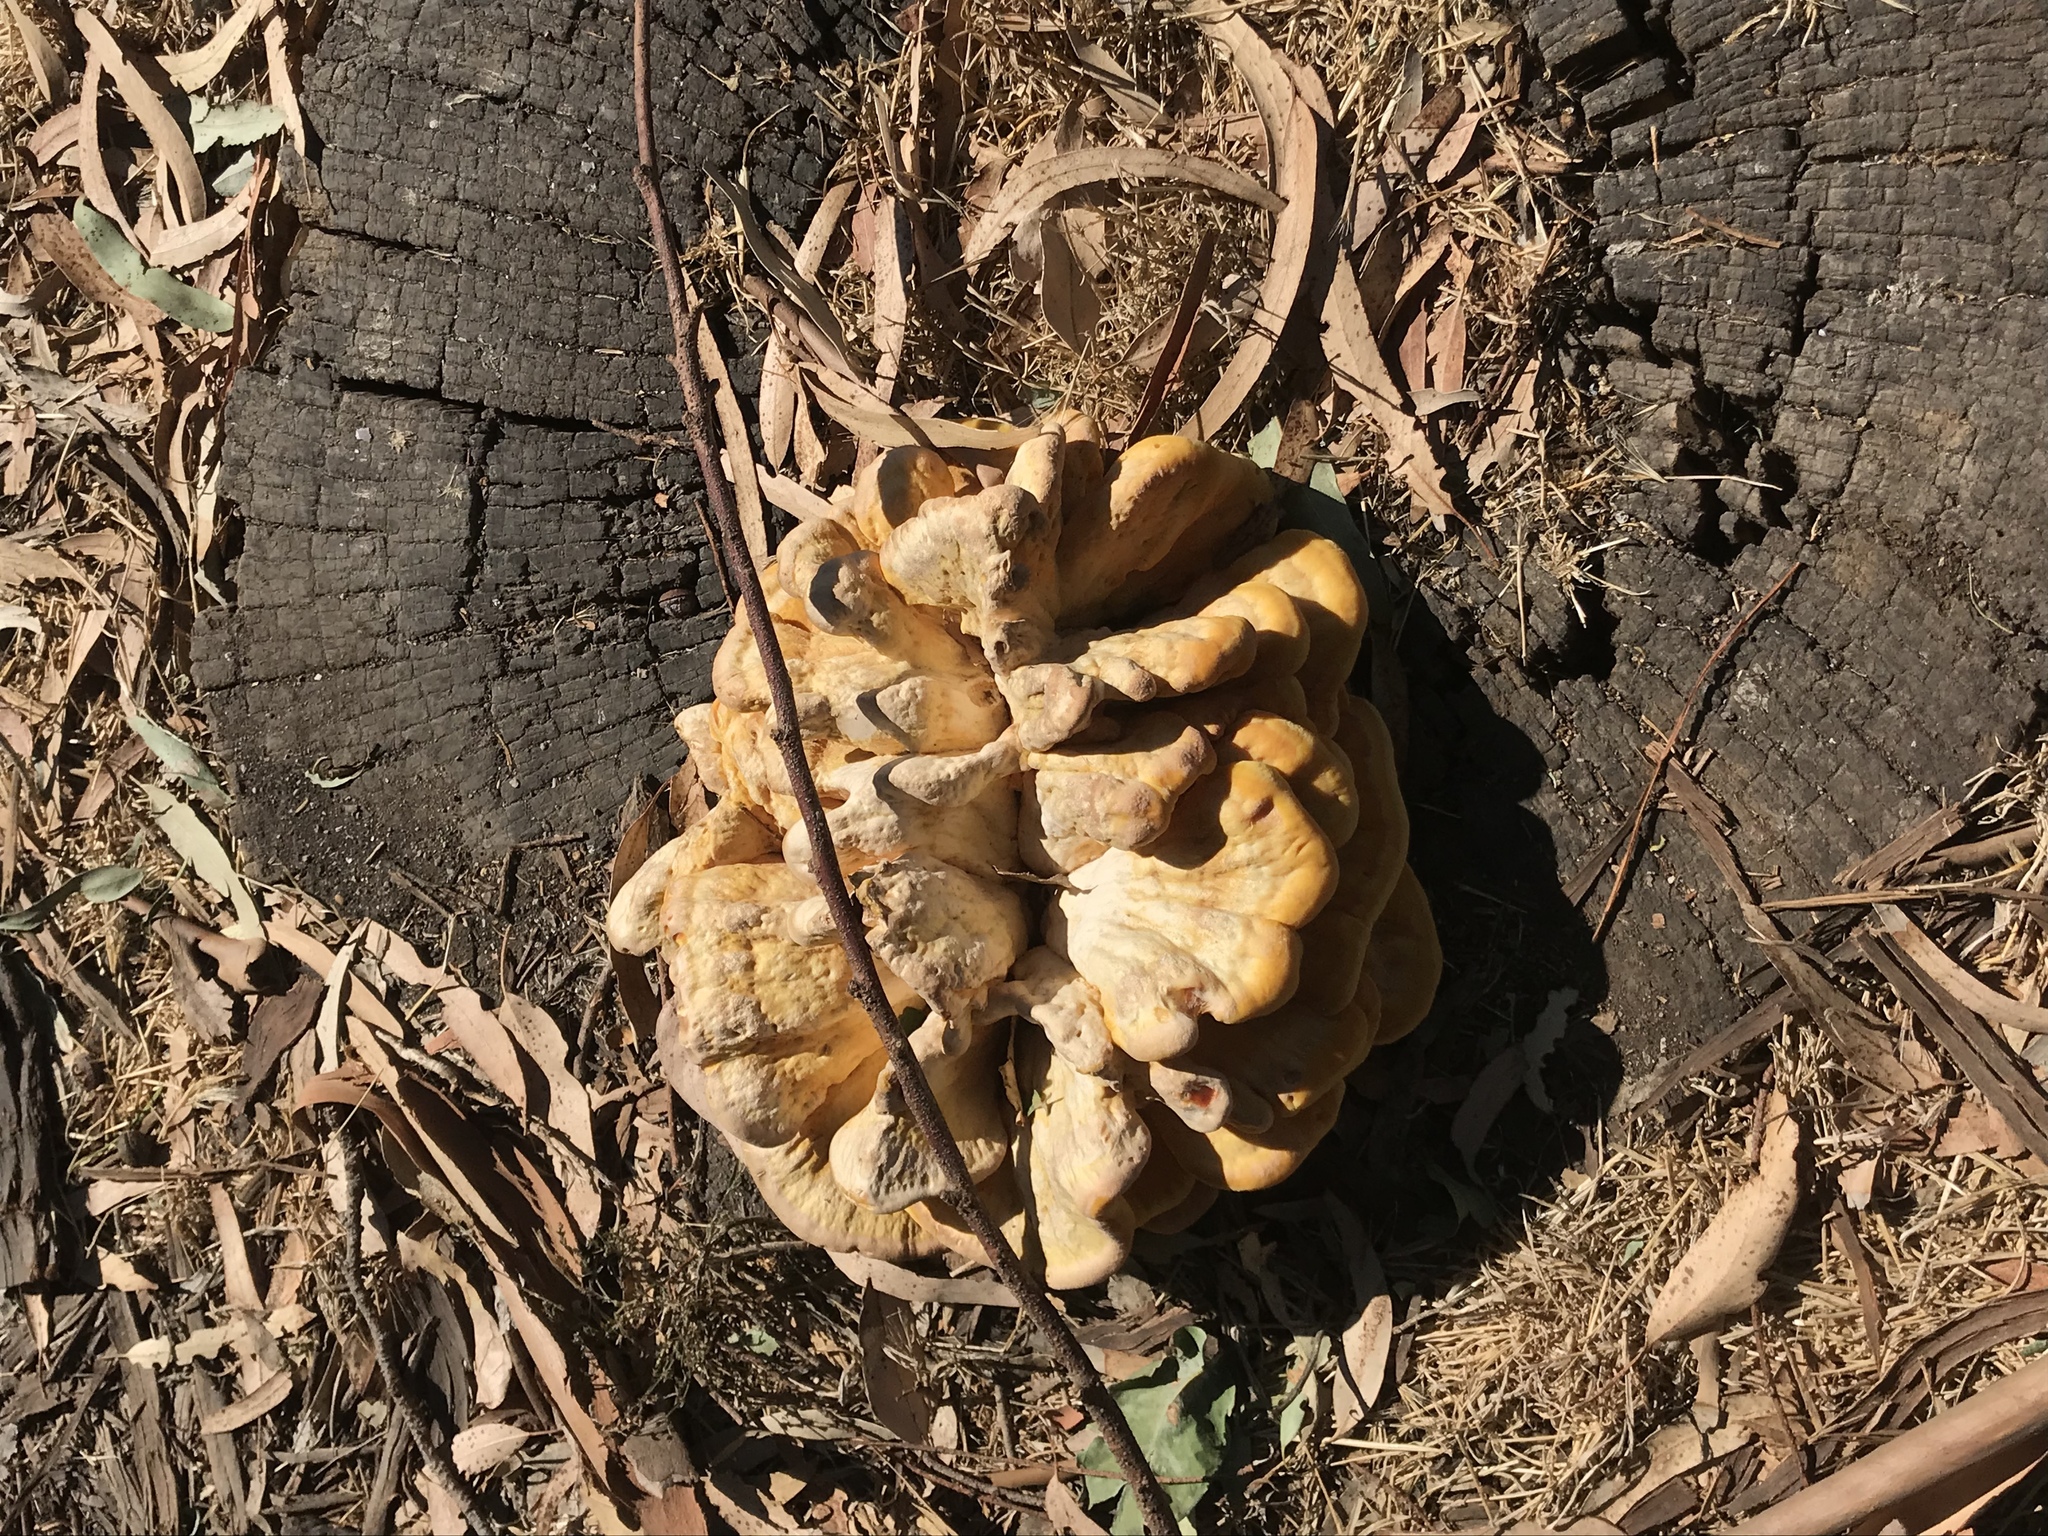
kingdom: Fungi
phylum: Basidiomycota
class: Agaricomycetes
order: Polyporales
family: Laetiporaceae
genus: Laetiporus
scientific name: Laetiporus gilbertsonii
